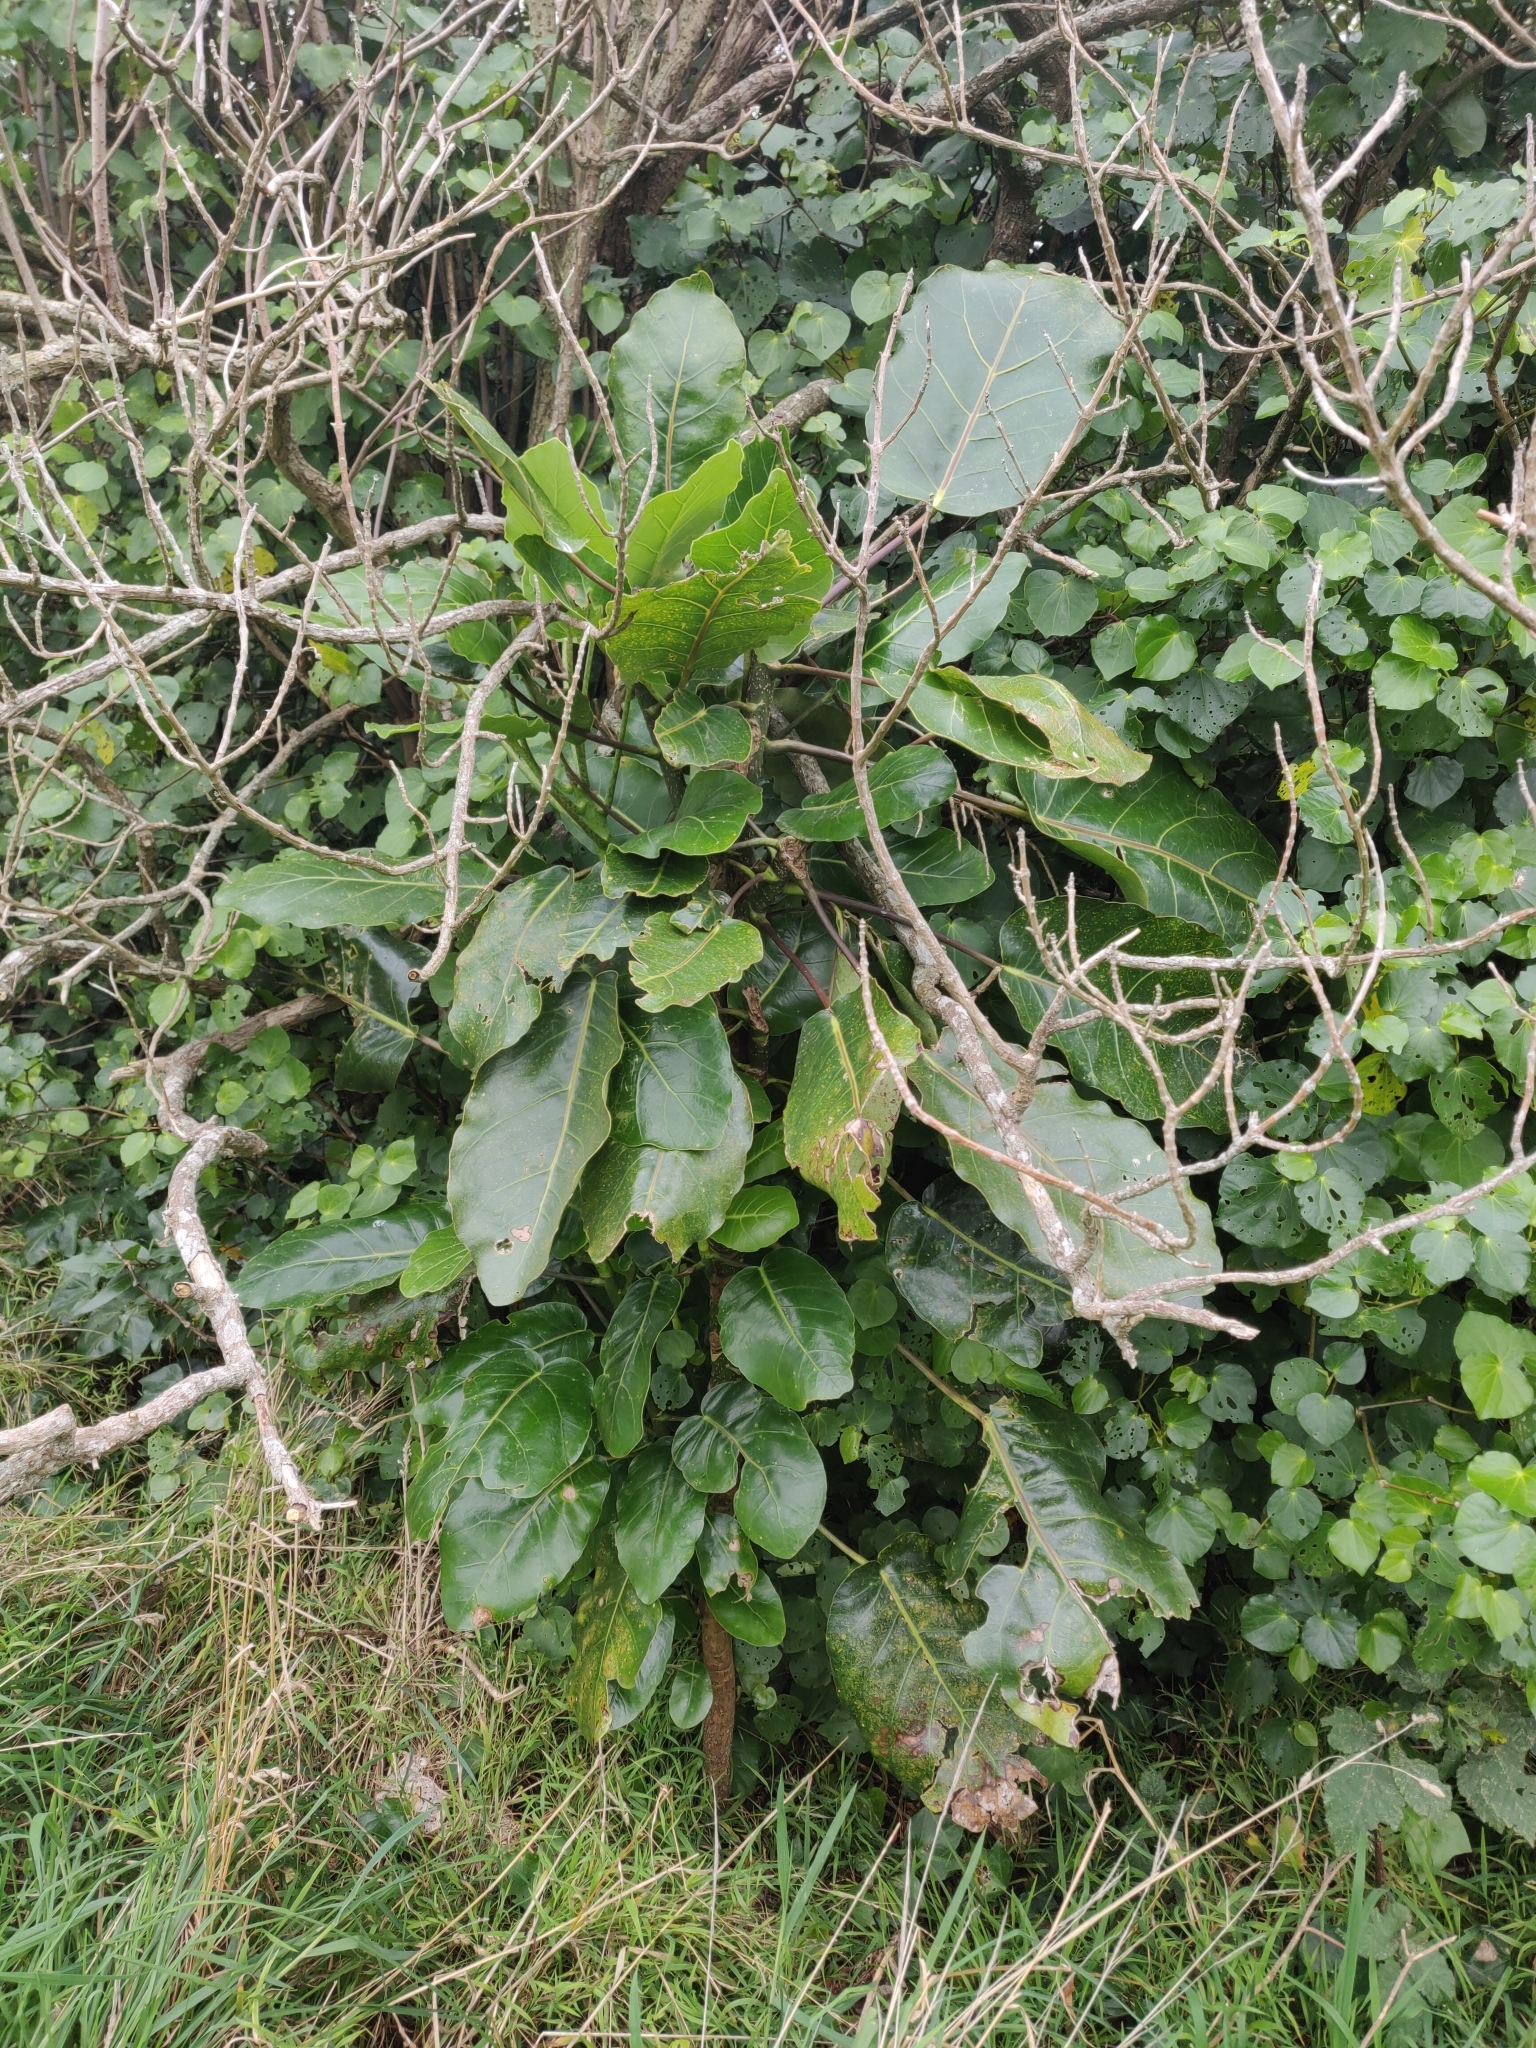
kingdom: Plantae
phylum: Tracheophyta
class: Magnoliopsida
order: Apiales
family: Araliaceae
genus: Meryta
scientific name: Meryta sinclairii
